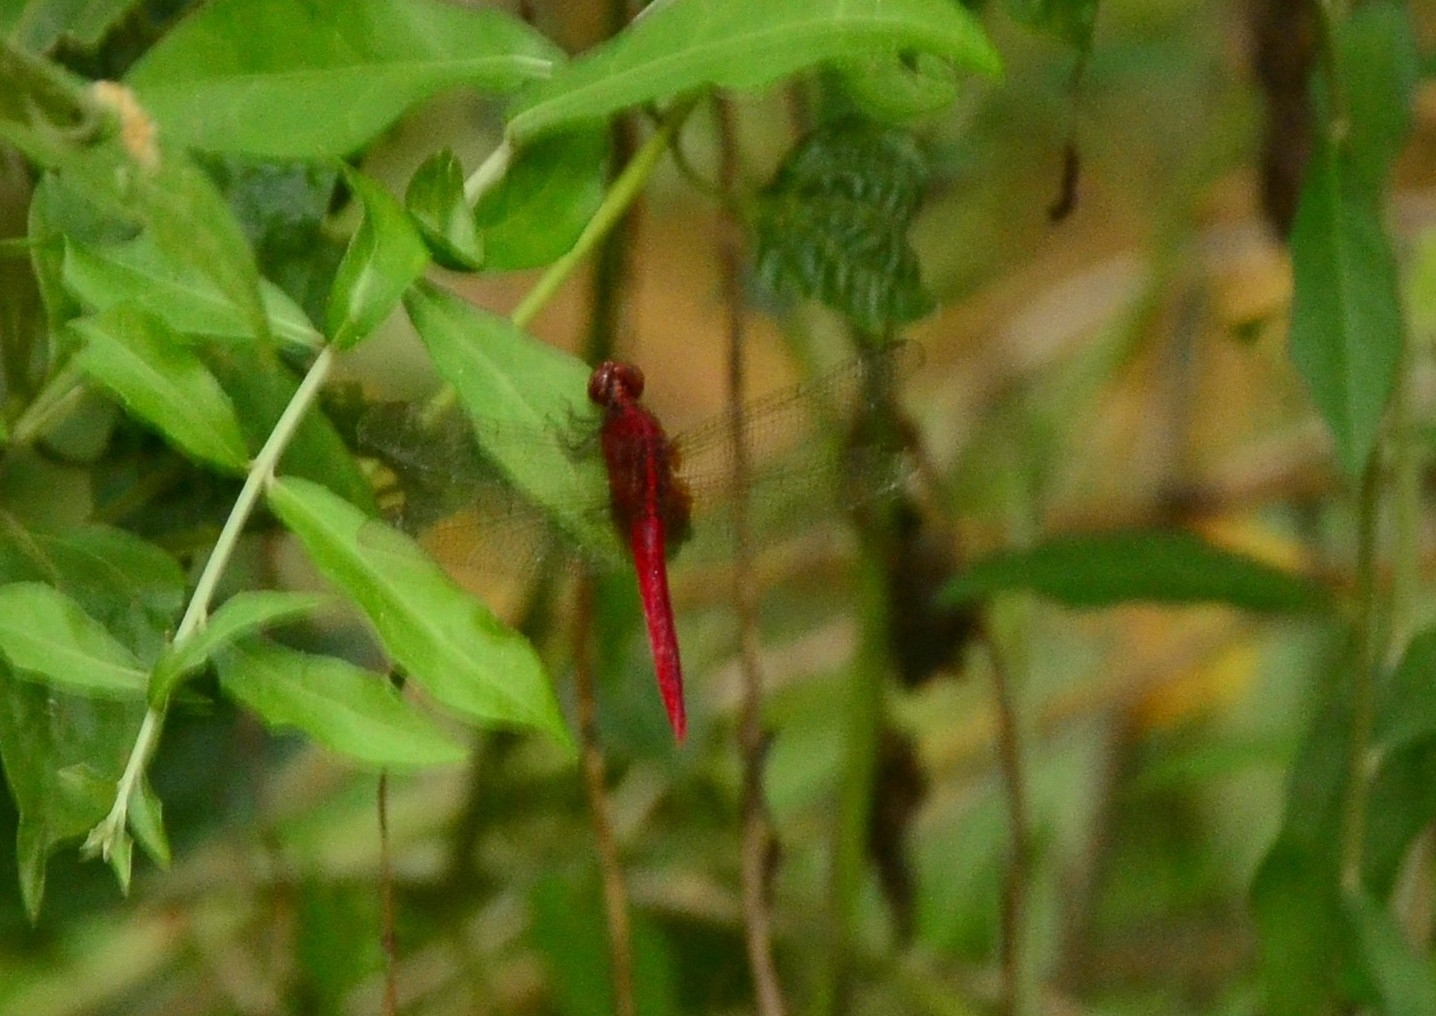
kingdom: Animalia
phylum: Arthropoda
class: Insecta
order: Odonata
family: Libellulidae
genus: Rhodothemis
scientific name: Rhodothemis rufa
